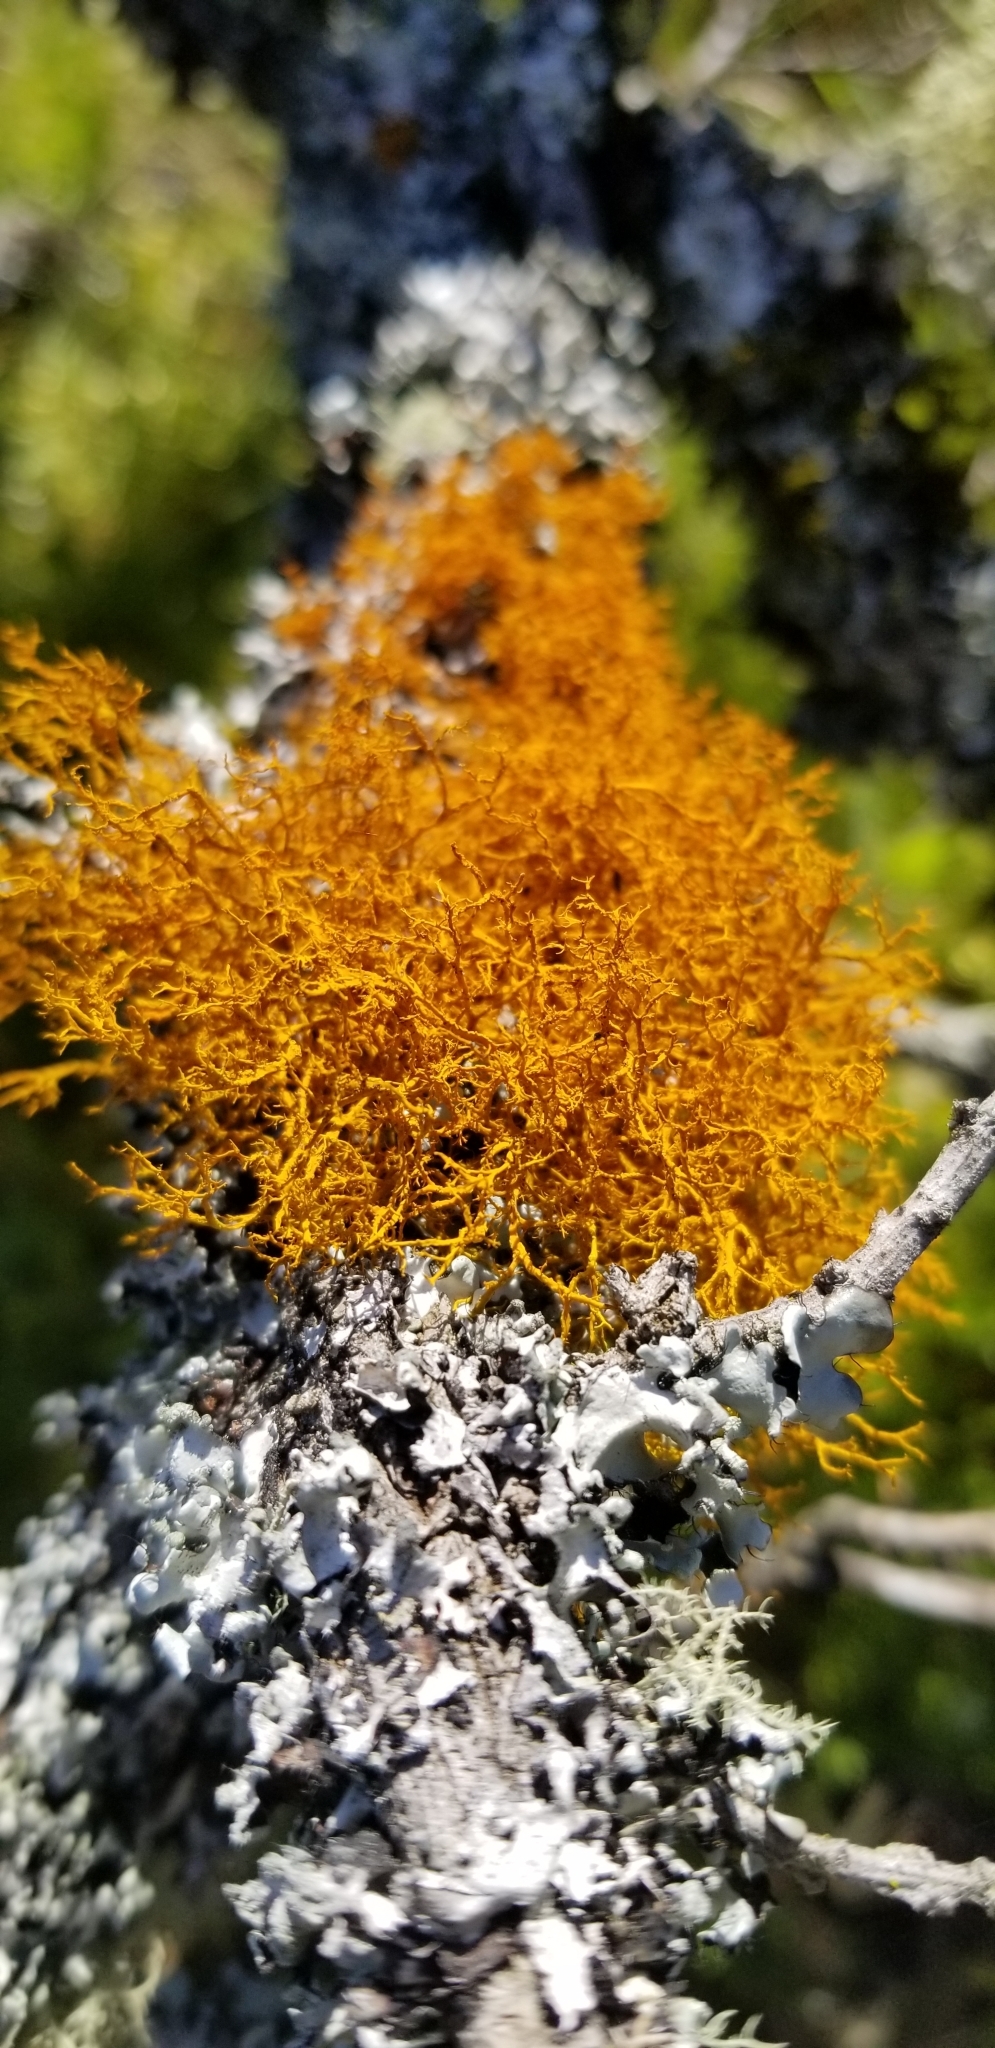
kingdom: Fungi
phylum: Ascomycota
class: Lecanoromycetes
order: Teloschistales
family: Teloschistaceae
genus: Teloschistes
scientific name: Teloschistes flavicans
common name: Golden hair-lichen
